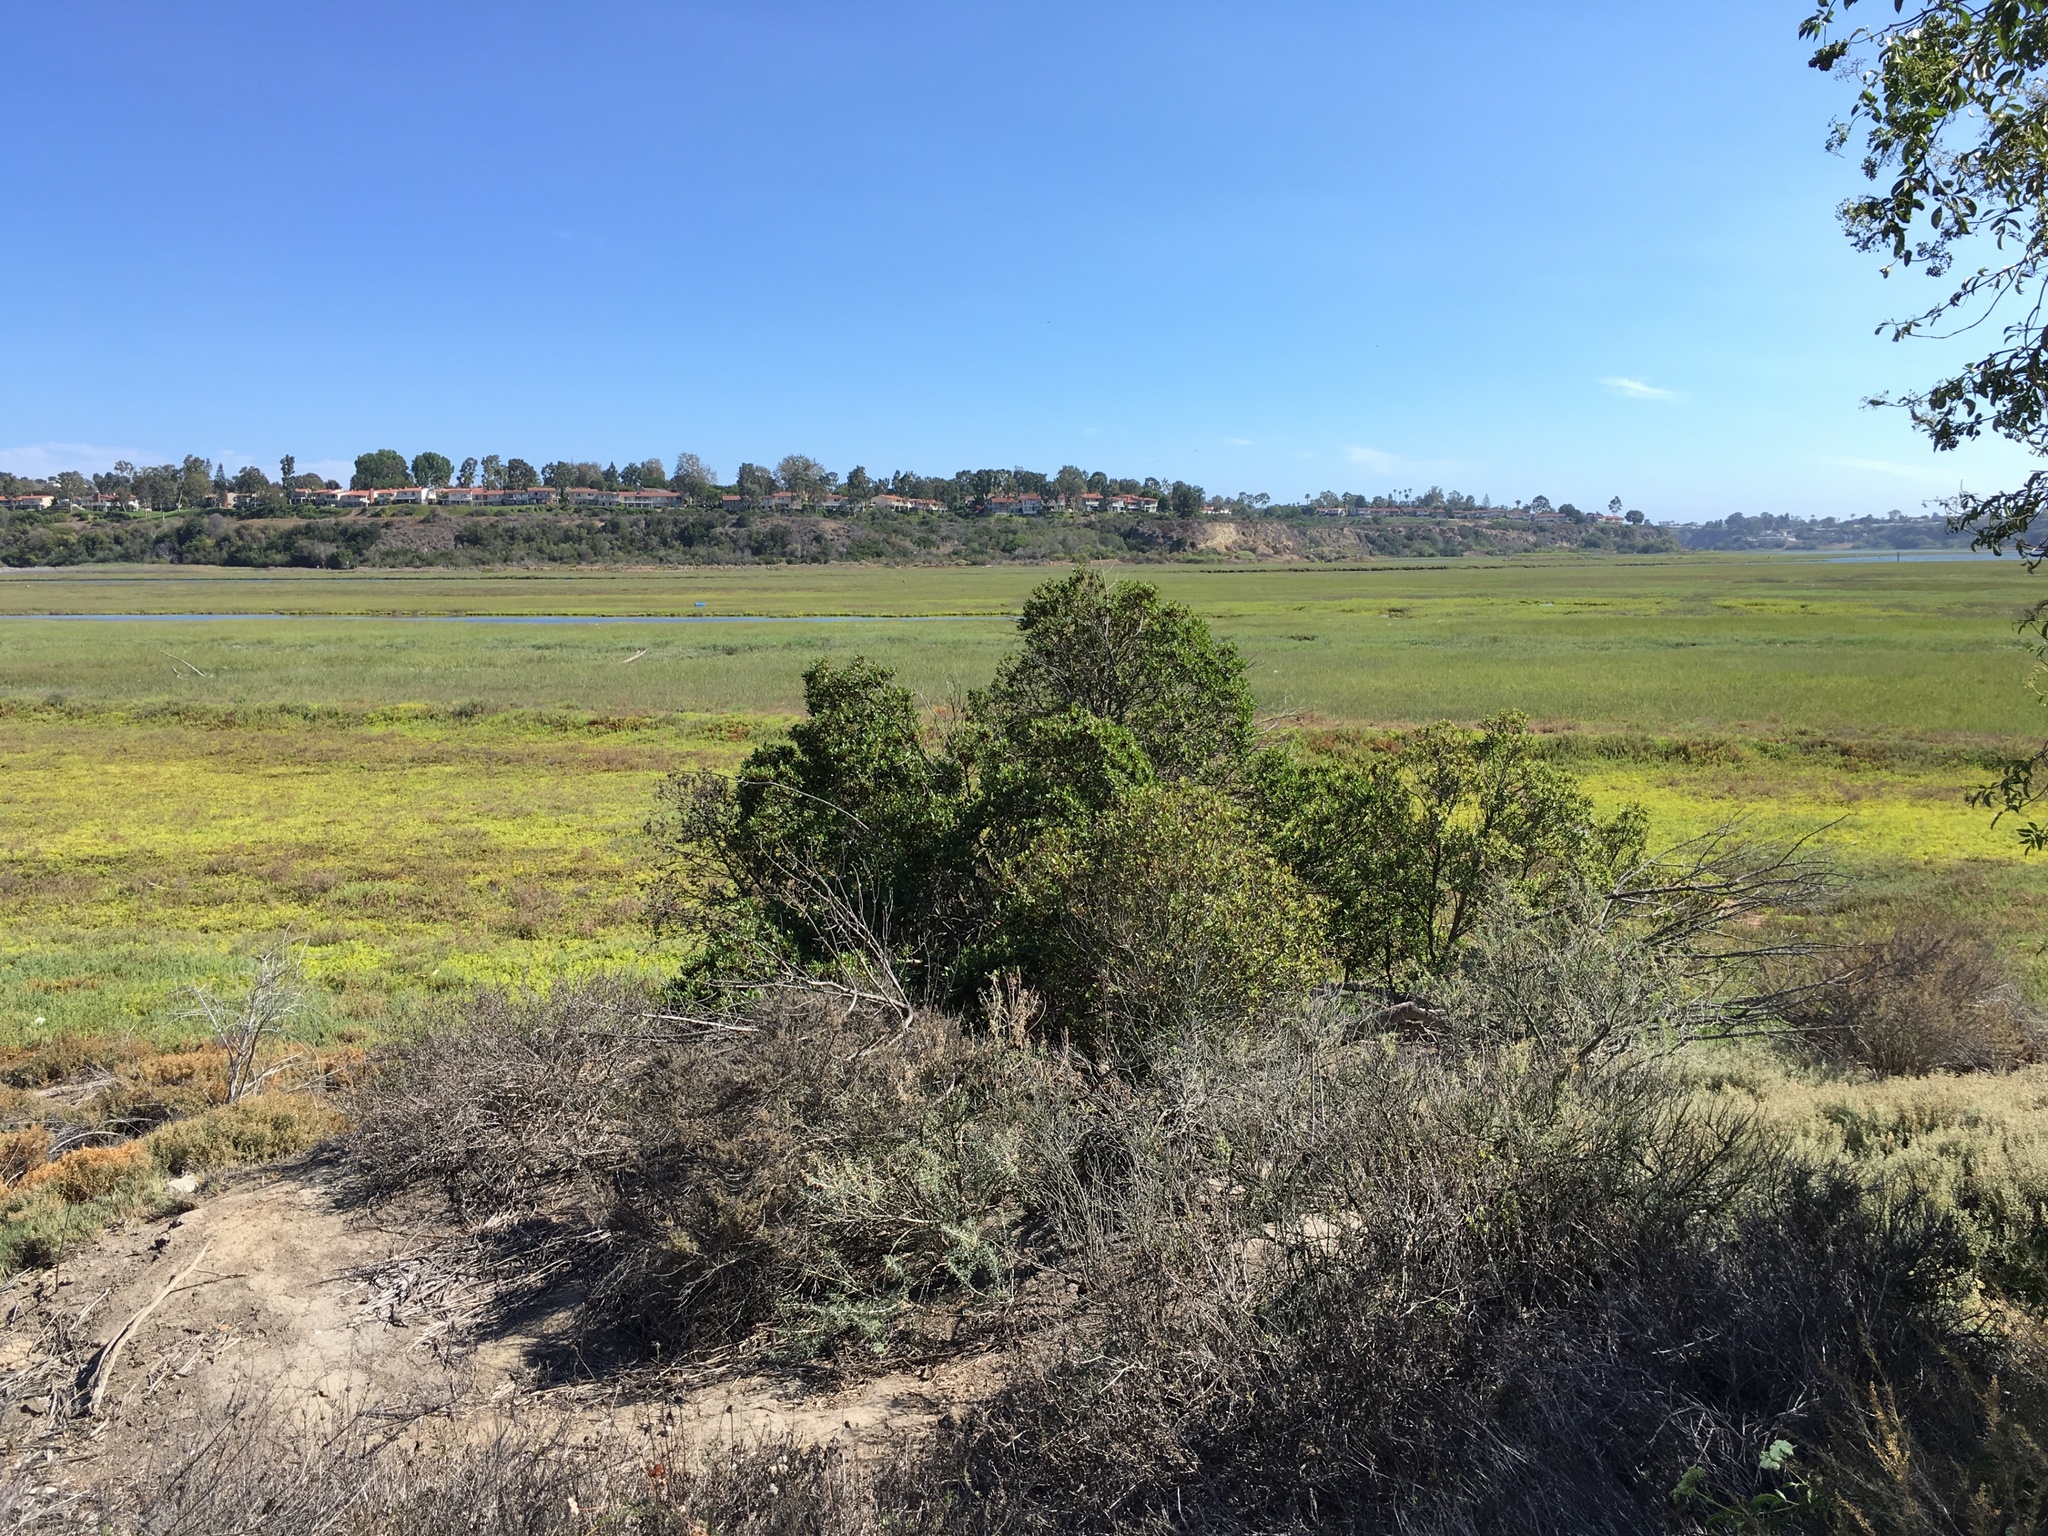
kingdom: Plantae
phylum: Tracheophyta
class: Magnoliopsida
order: Lamiales
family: Scrophulariaceae
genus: Myoporum
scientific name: Myoporum laetum
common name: Ngaio tree
